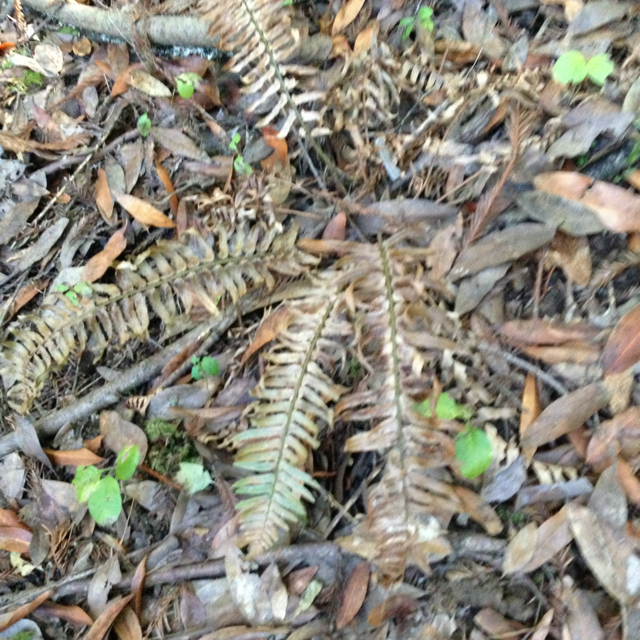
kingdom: Plantae
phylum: Tracheophyta
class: Polypodiopsida
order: Polypodiales
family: Dryopteridaceae
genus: Polystichum
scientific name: Polystichum munitum
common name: Western sword-fern
